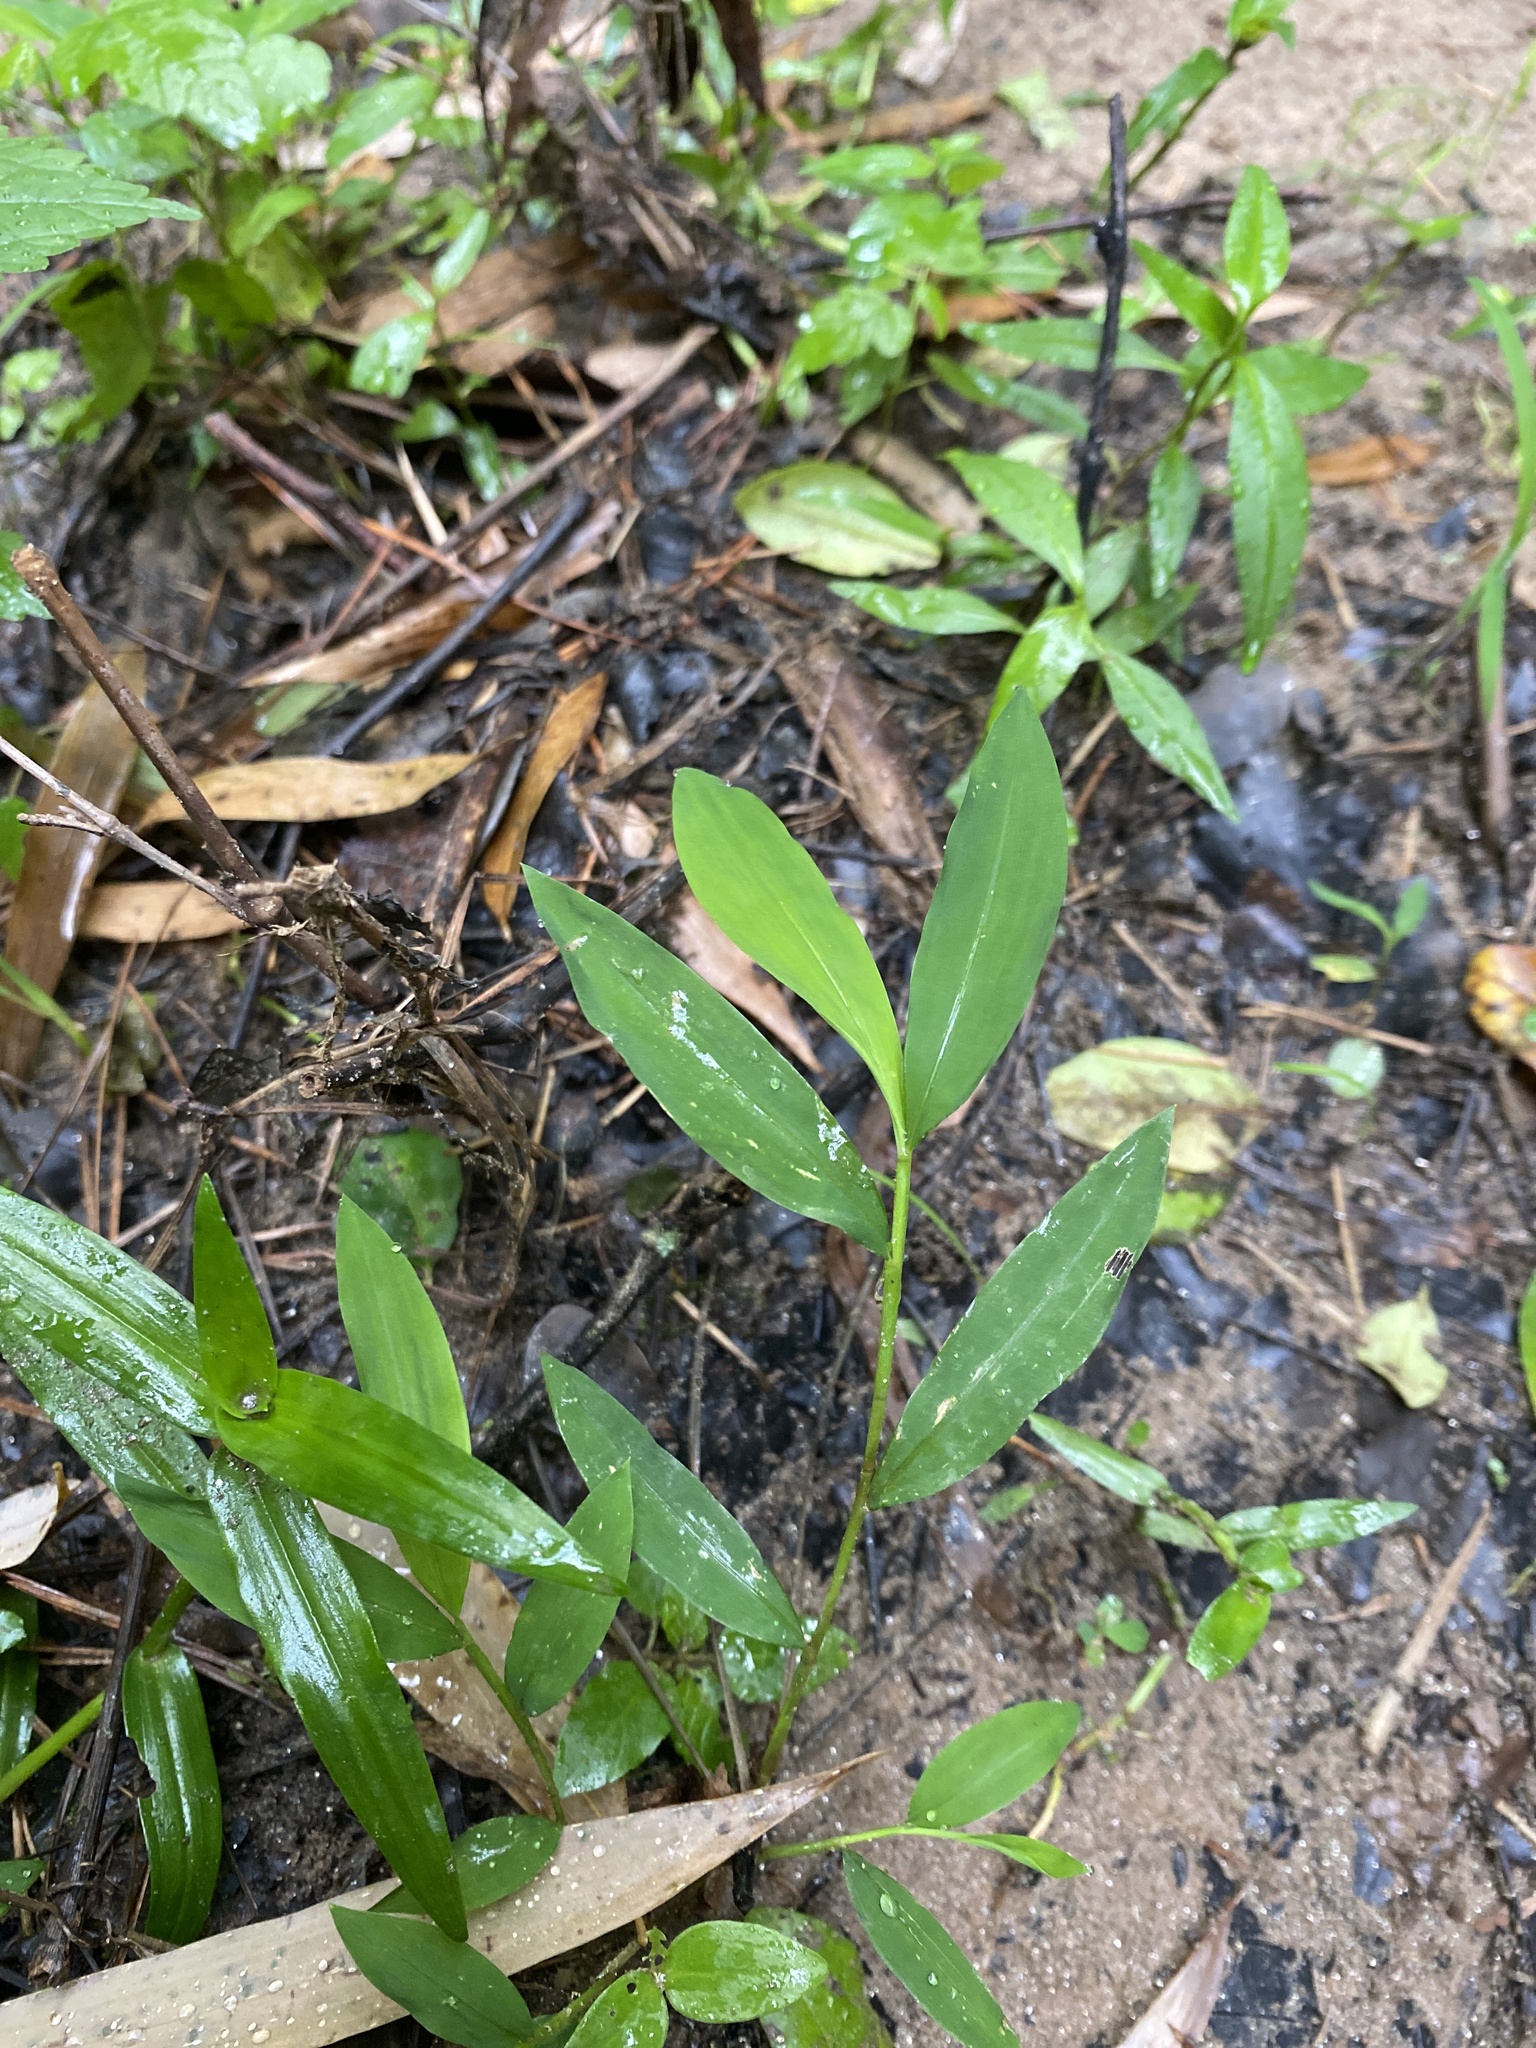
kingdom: Plantae
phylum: Tracheophyta
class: Liliopsida
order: Poales
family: Poaceae
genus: Microstegium
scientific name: Microstegium vimineum
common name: Japanese stiltgrass
